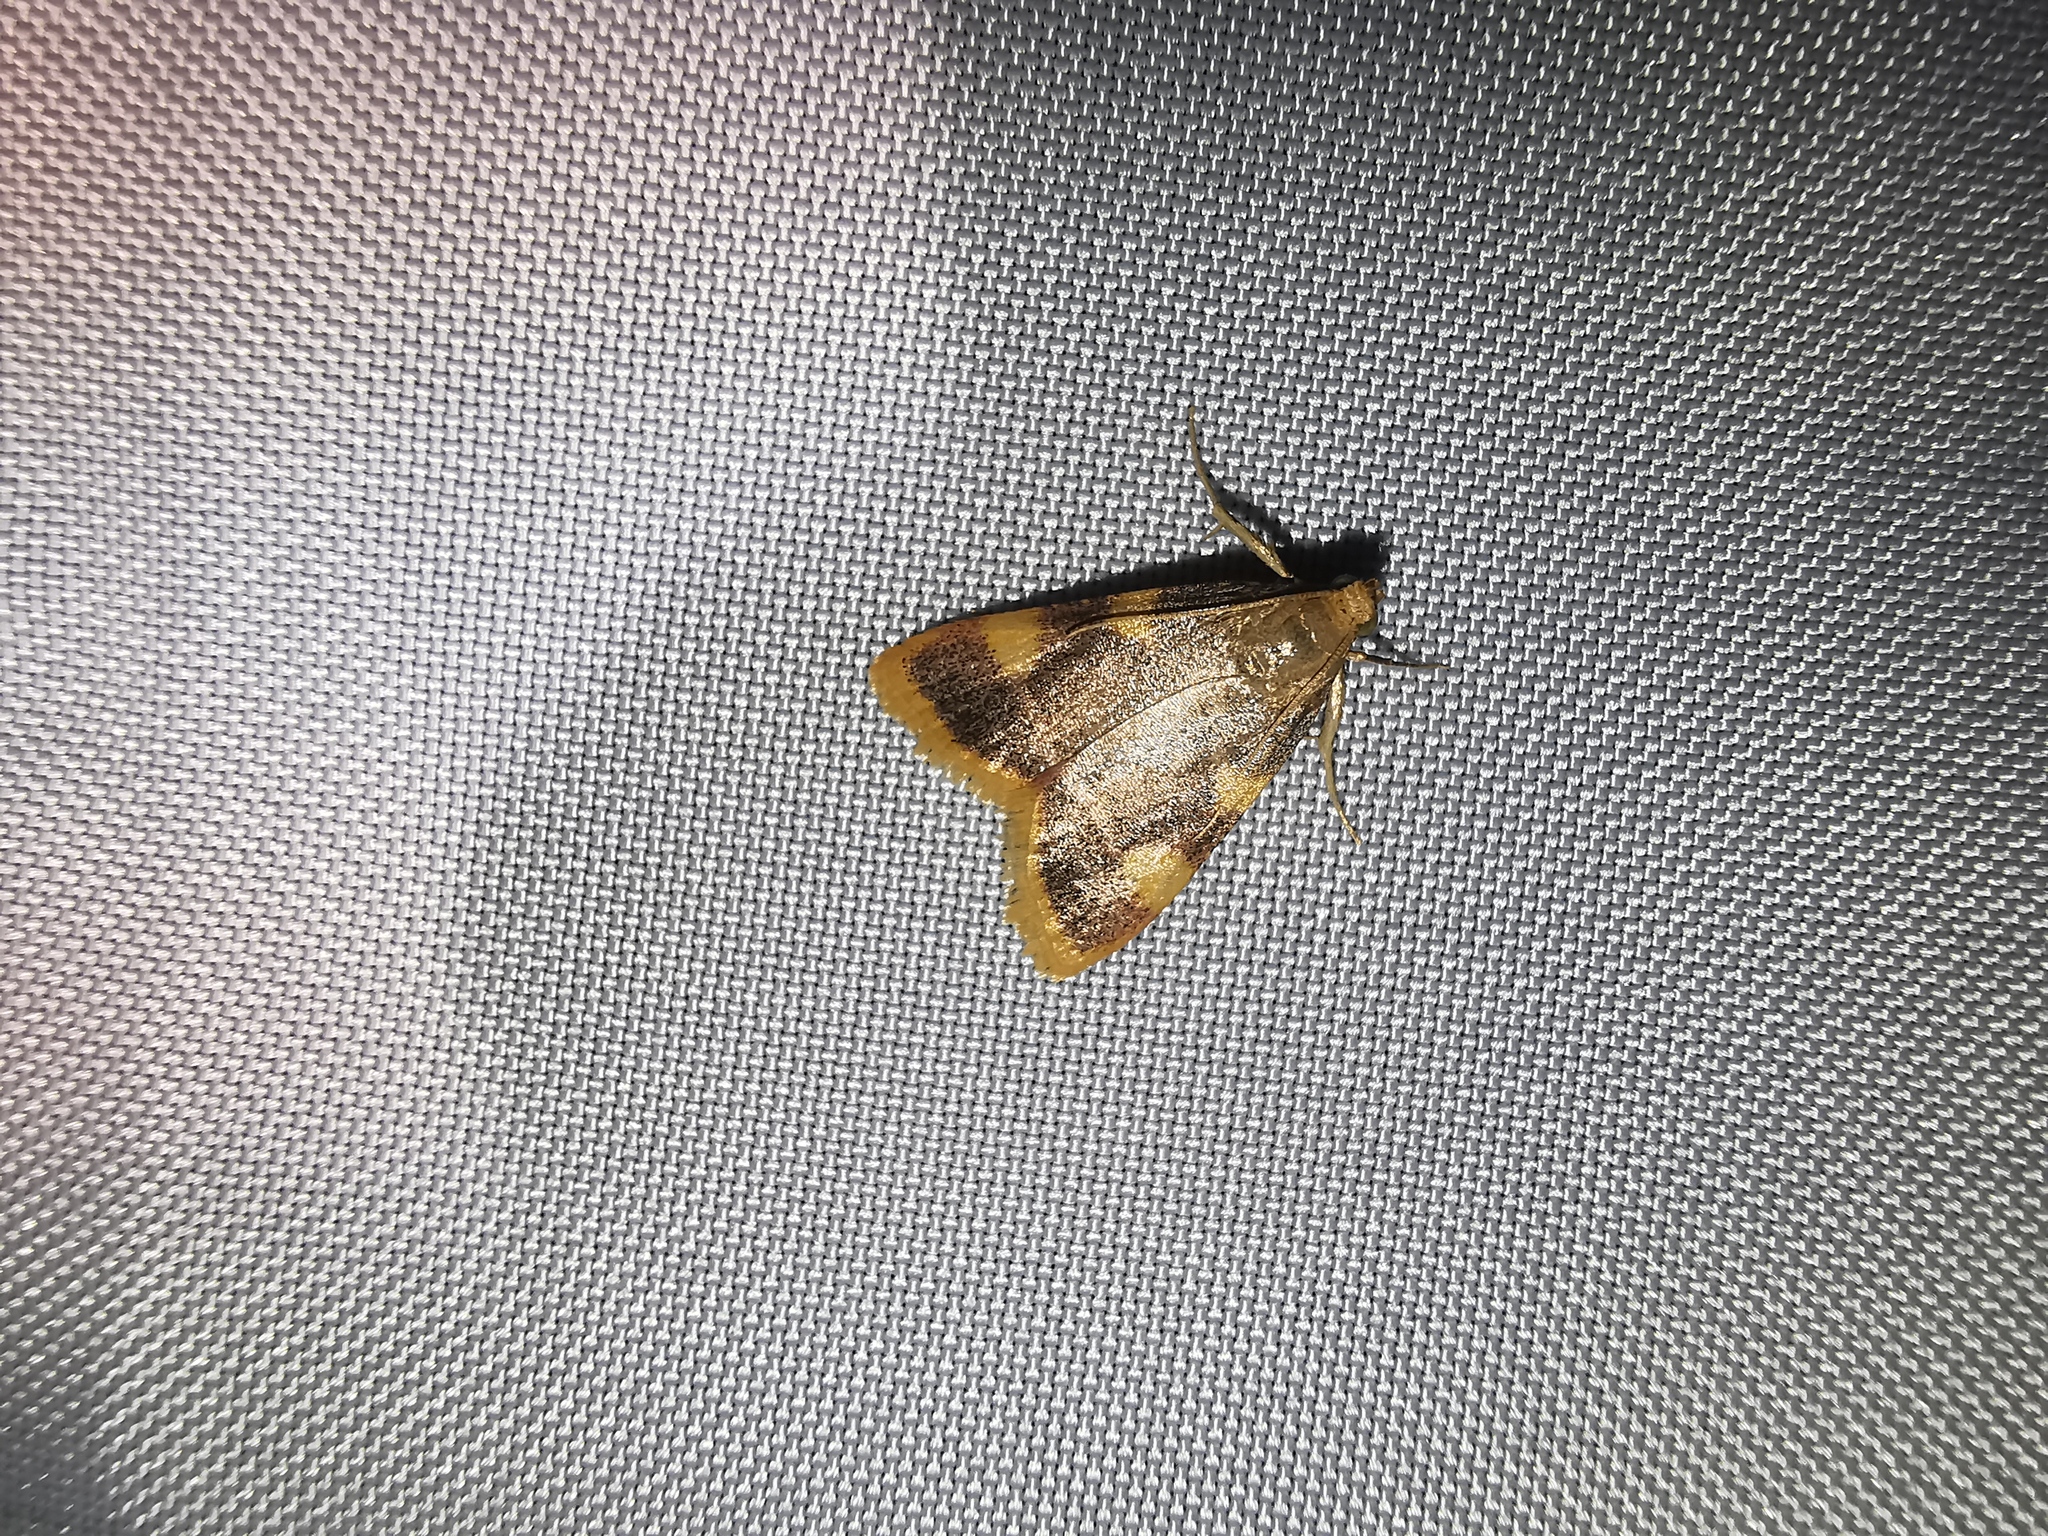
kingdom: Animalia
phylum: Arthropoda
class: Insecta
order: Lepidoptera
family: Pyralidae
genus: Hypsopygia
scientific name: Hypsopygia costalis
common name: Gold triangle
